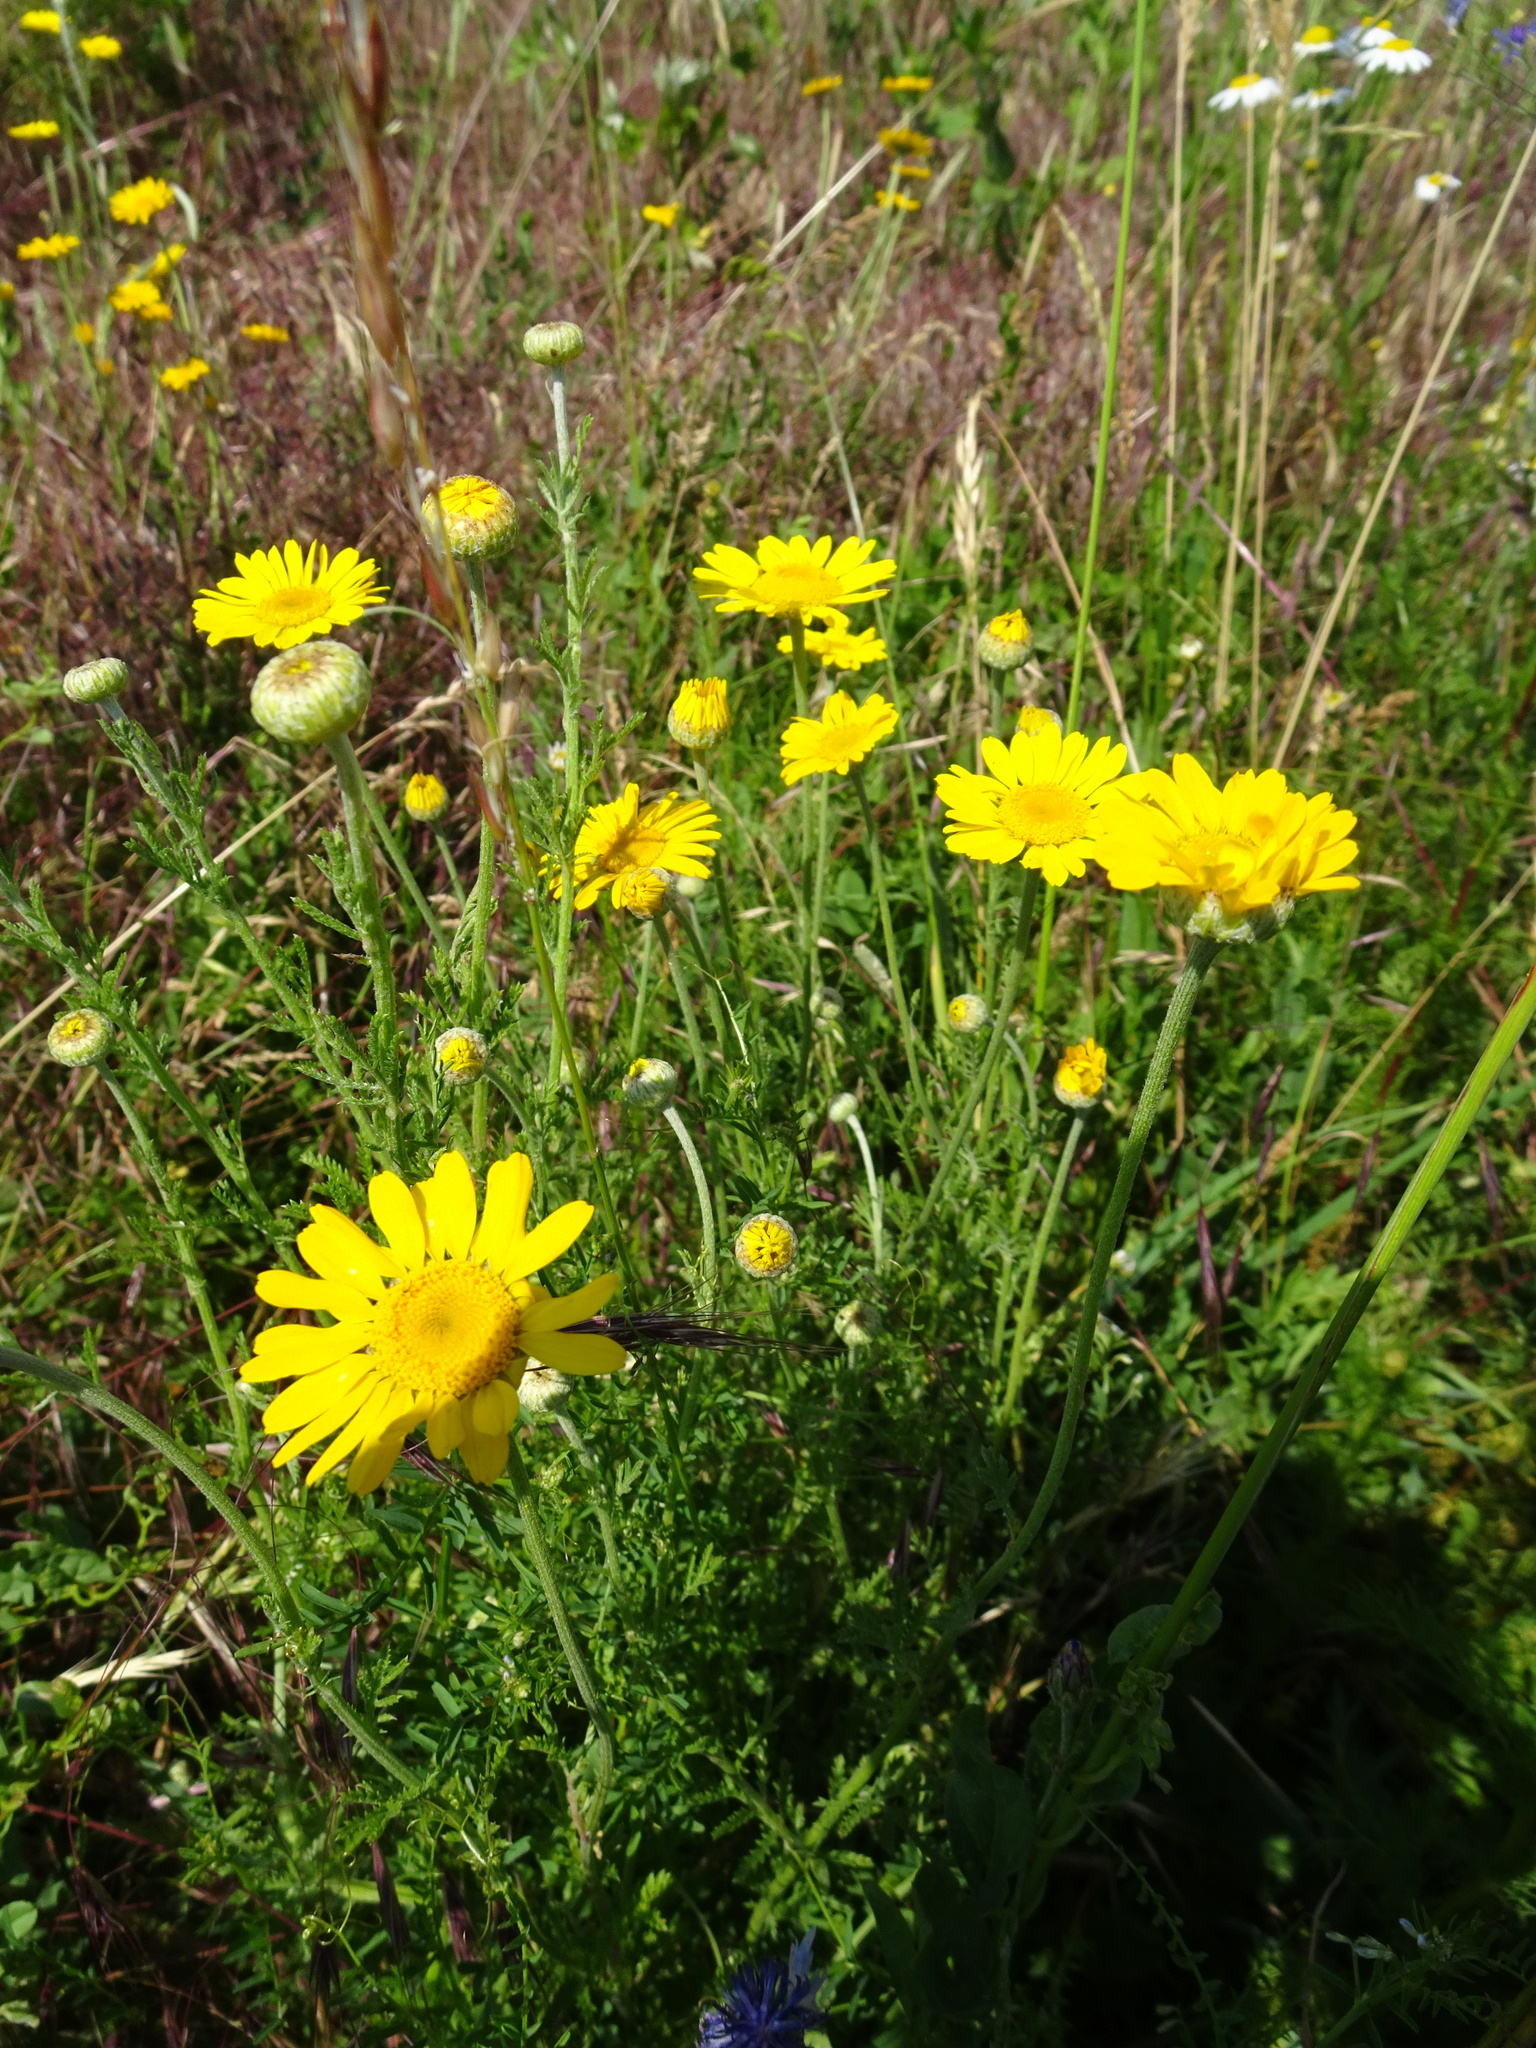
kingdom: Plantae
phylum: Tracheophyta
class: Magnoliopsida
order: Asterales
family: Asteraceae
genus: Cota
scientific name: Cota tinctoria
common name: Golden chamomile
